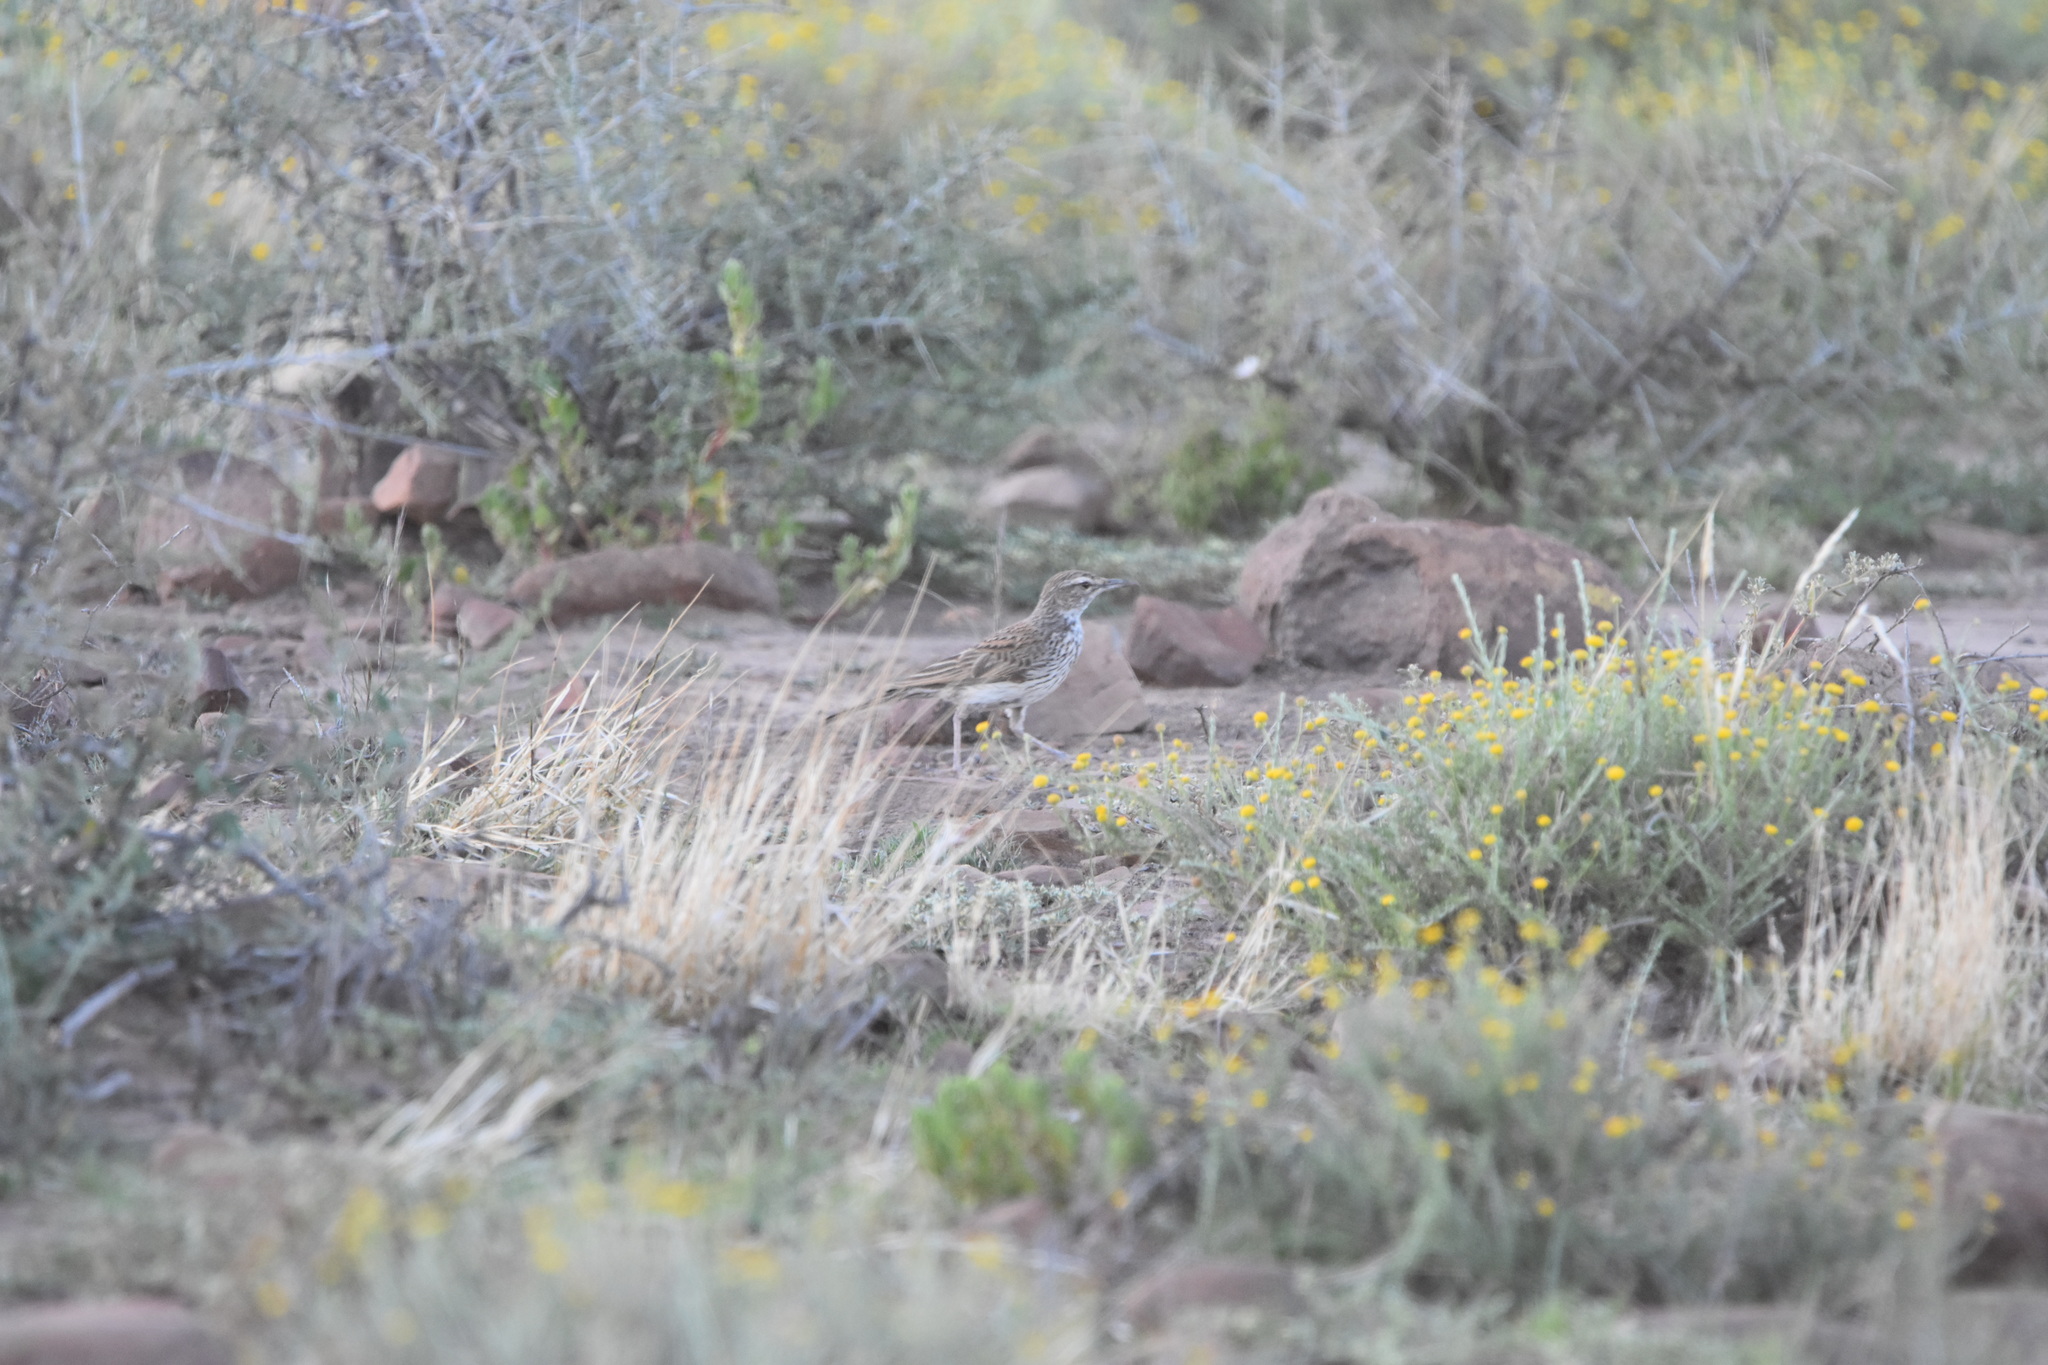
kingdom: Animalia
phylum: Chordata
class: Aves
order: Passeriformes
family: Alaudidae
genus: Certhilauda
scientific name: Certhilauda subcoronata
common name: Karoo long-billed lark
